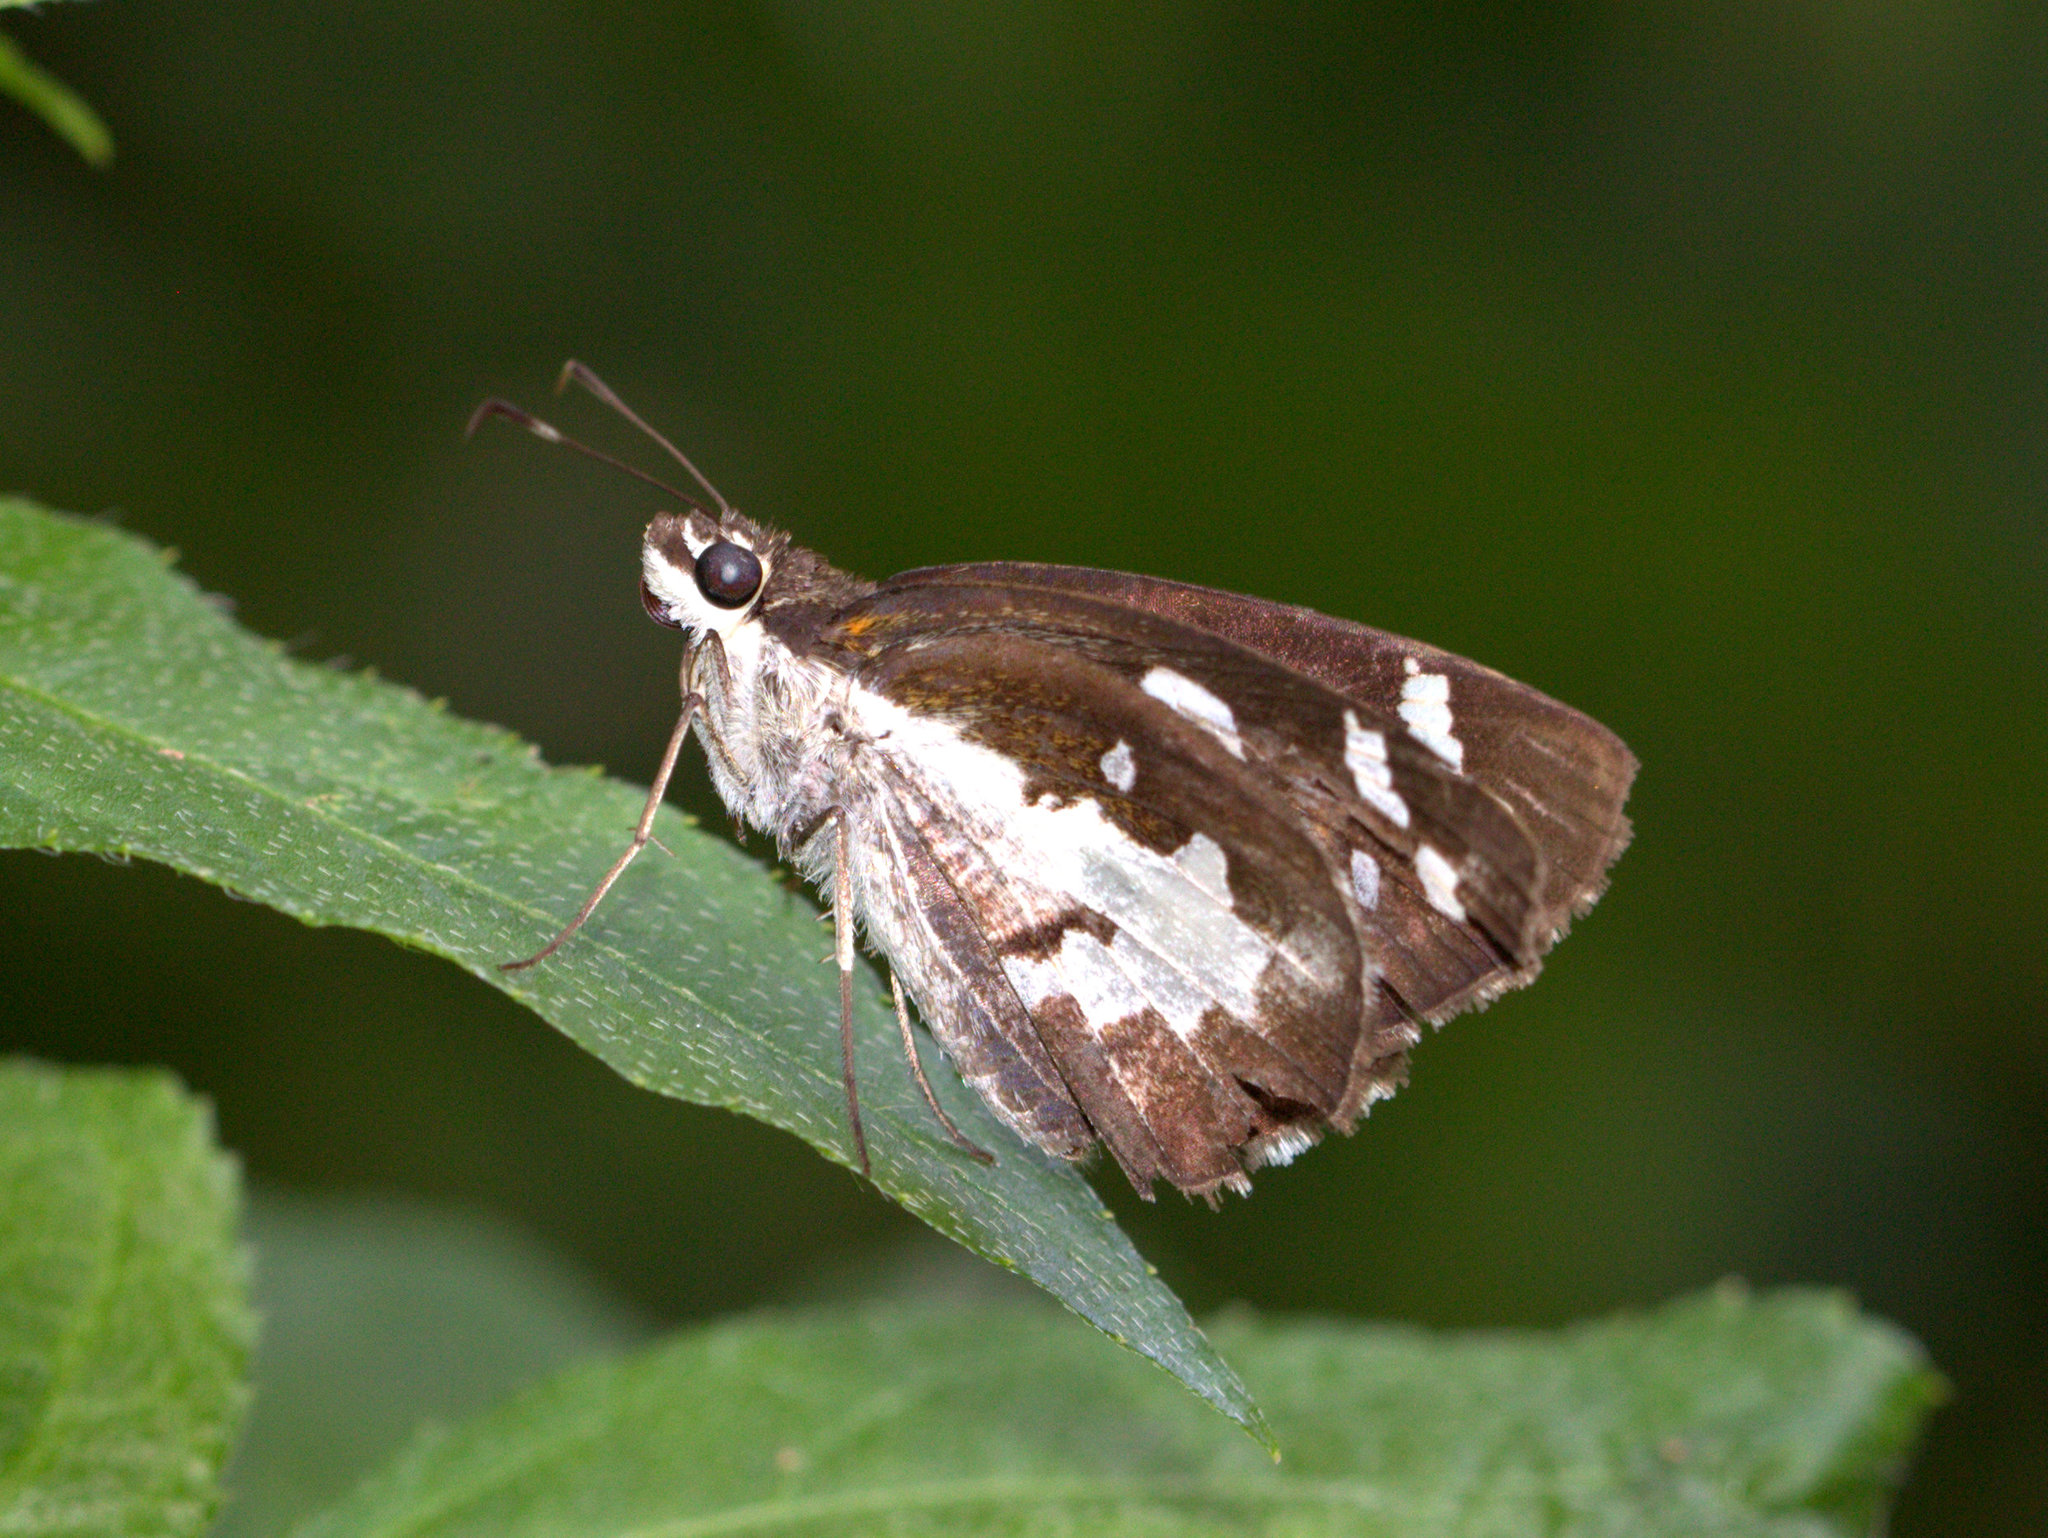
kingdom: Animalia
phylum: Arthropoda
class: Insecta
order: Lepidoptera
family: Hesperiidae
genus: Udaspes
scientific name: Udaspes folus
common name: Grass demon
